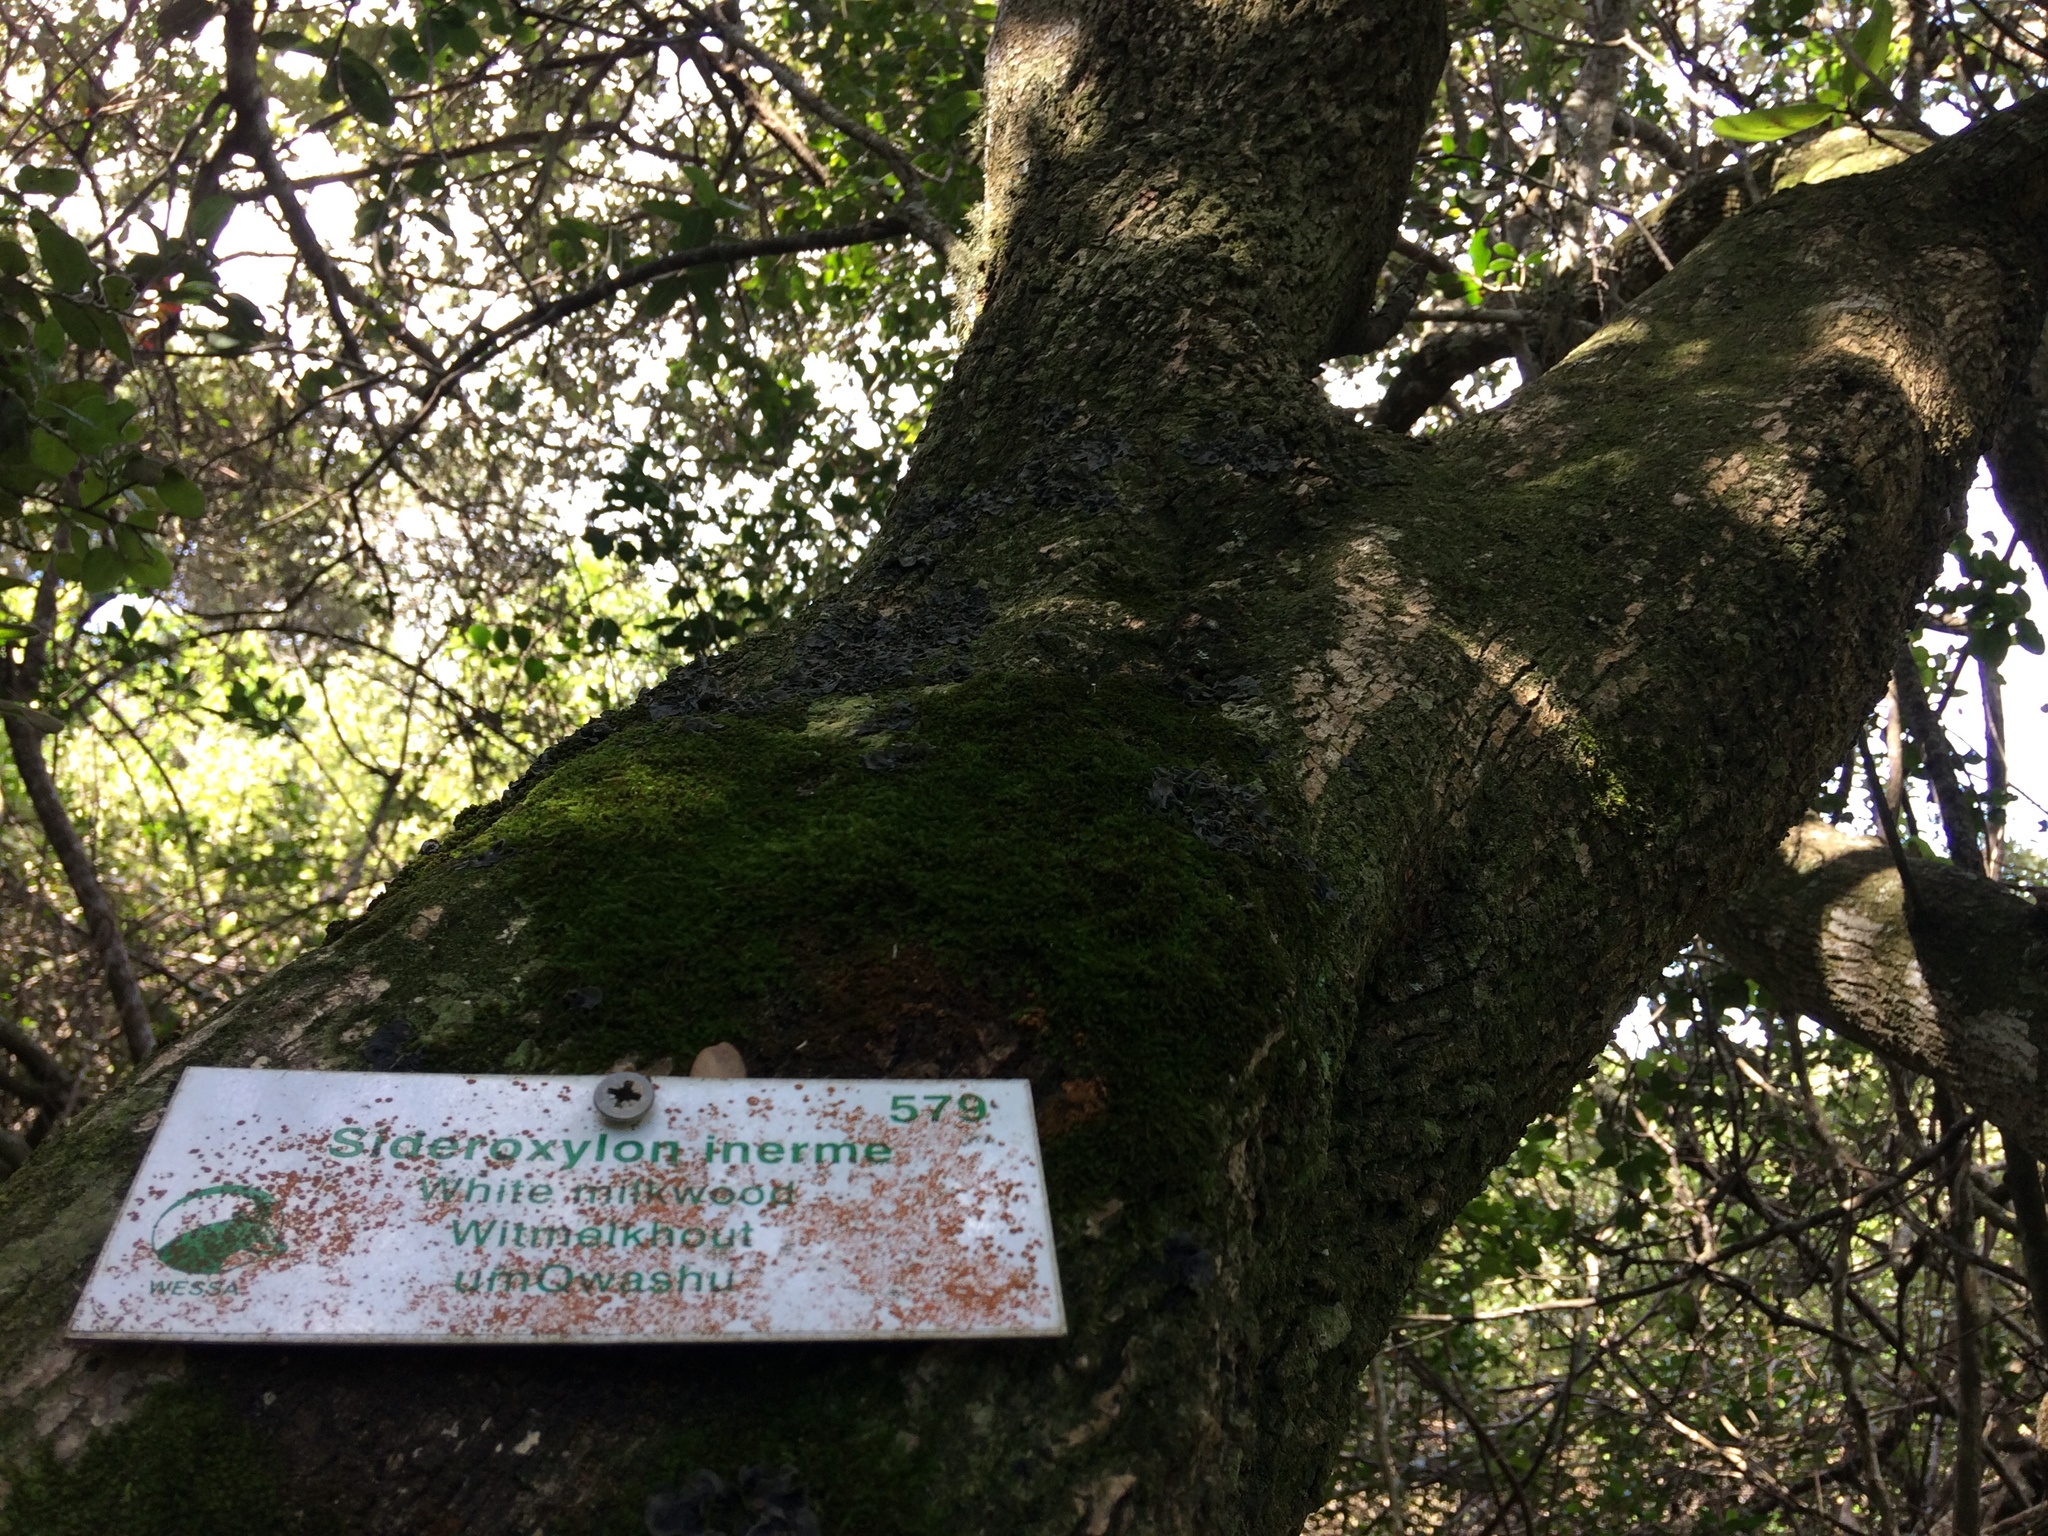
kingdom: Plantae
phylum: Tracheophyta
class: Magnoliopsida
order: Ericales
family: Sapotaceae
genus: Sideroxylon
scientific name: Sideroxylon inerme
